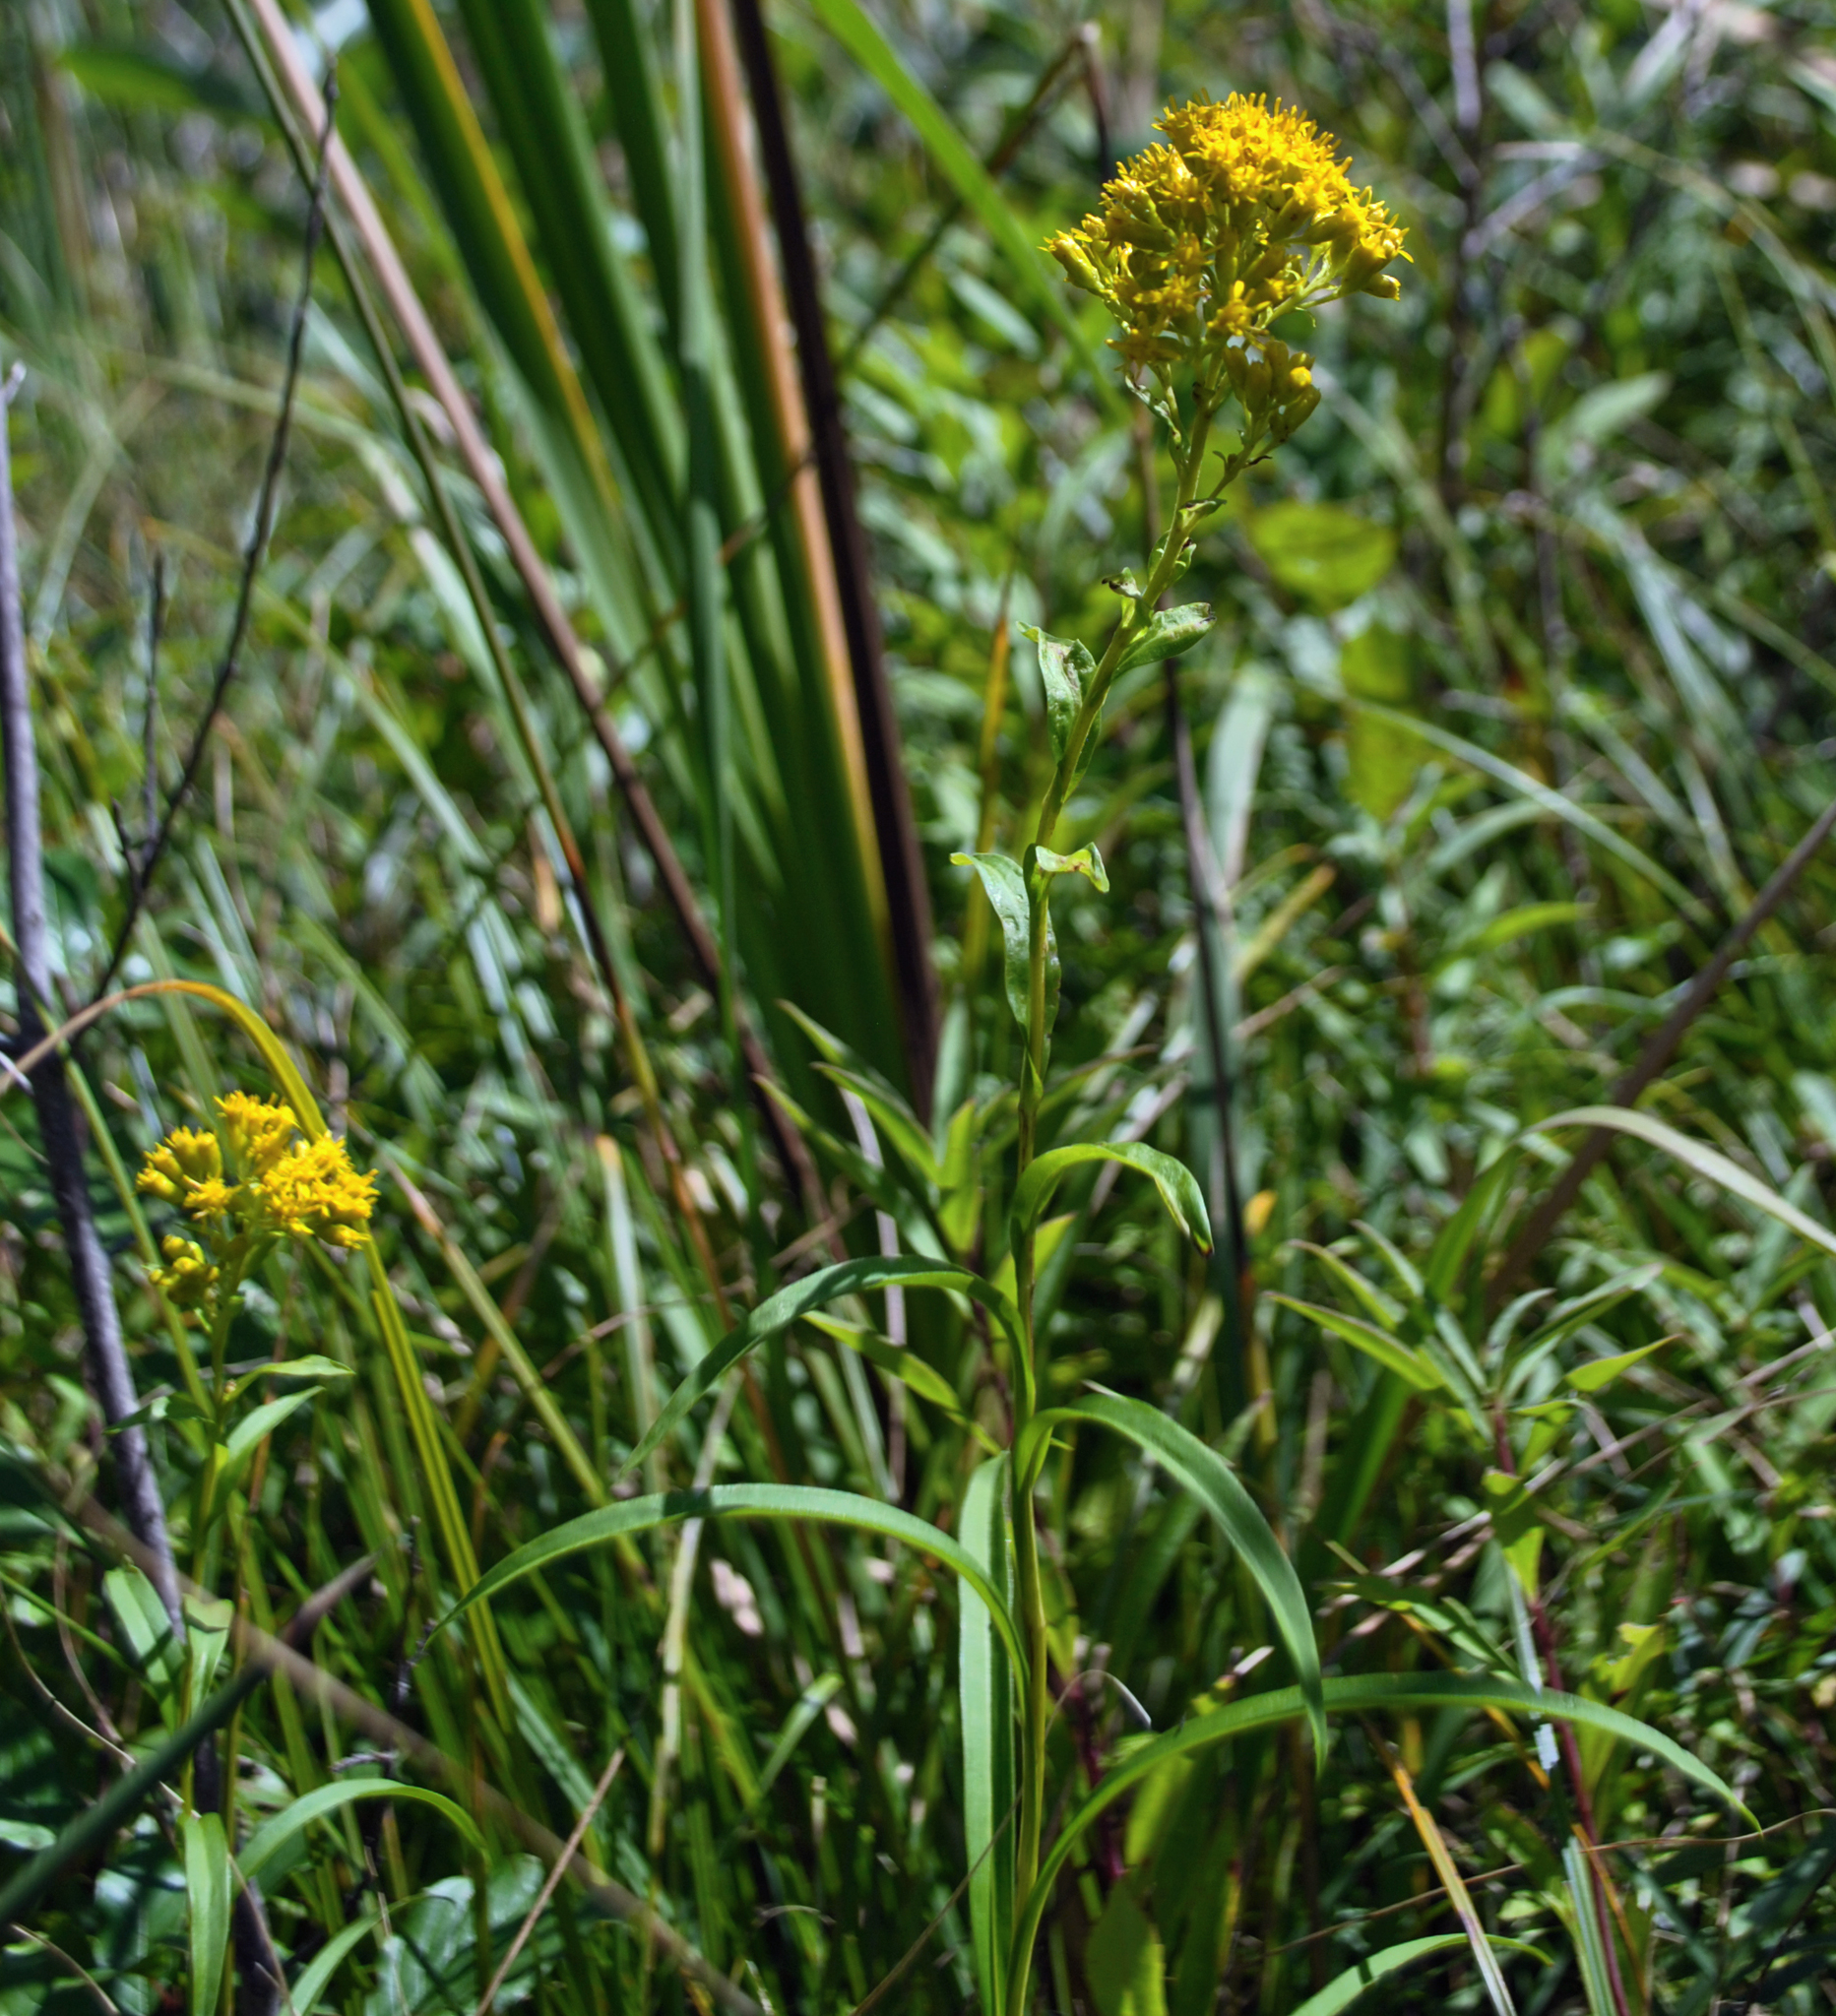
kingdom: Plantae
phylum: Tracheophyta
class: Magnoliopsida
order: Asterales
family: Asteraceae
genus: Solidago
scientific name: Solidago riddellii
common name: Riddell's goldenrod
